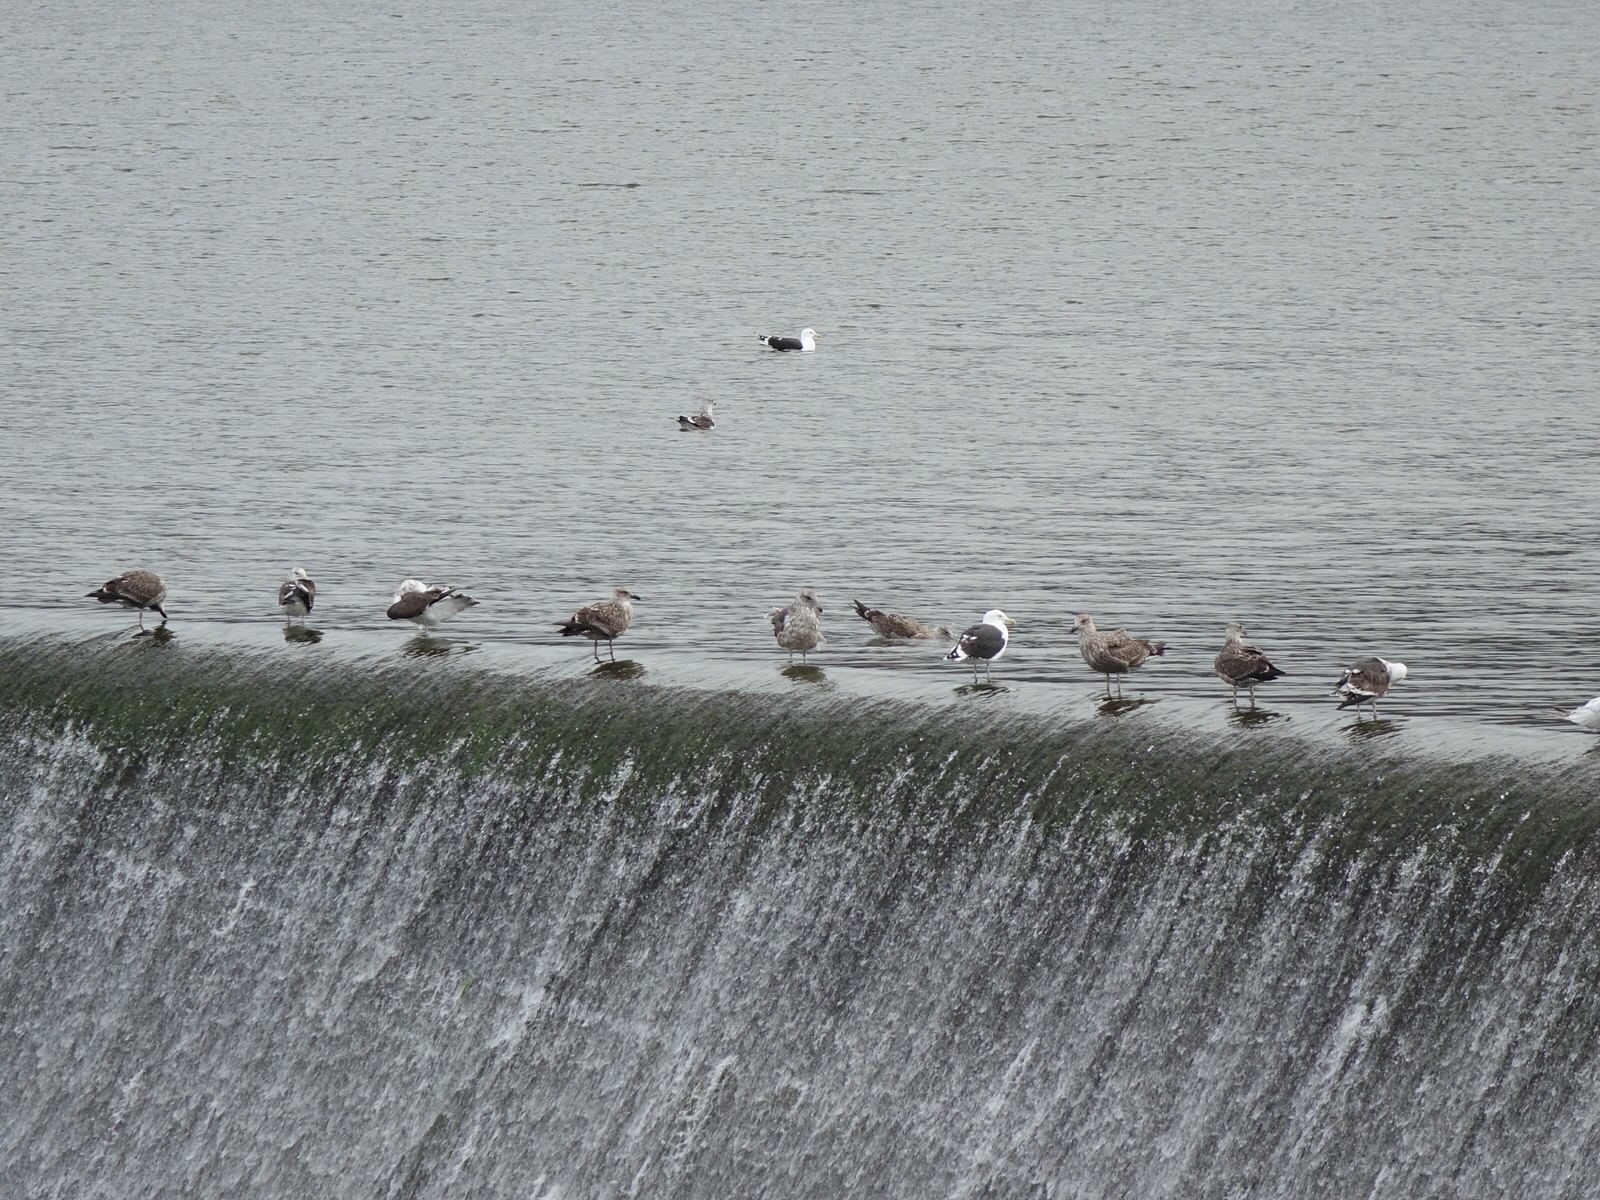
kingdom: Animalia
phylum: Chordata
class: Aves
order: Charadriiformes
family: Laridae
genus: Larus
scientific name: Larus dominicanus
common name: Kelp gull
